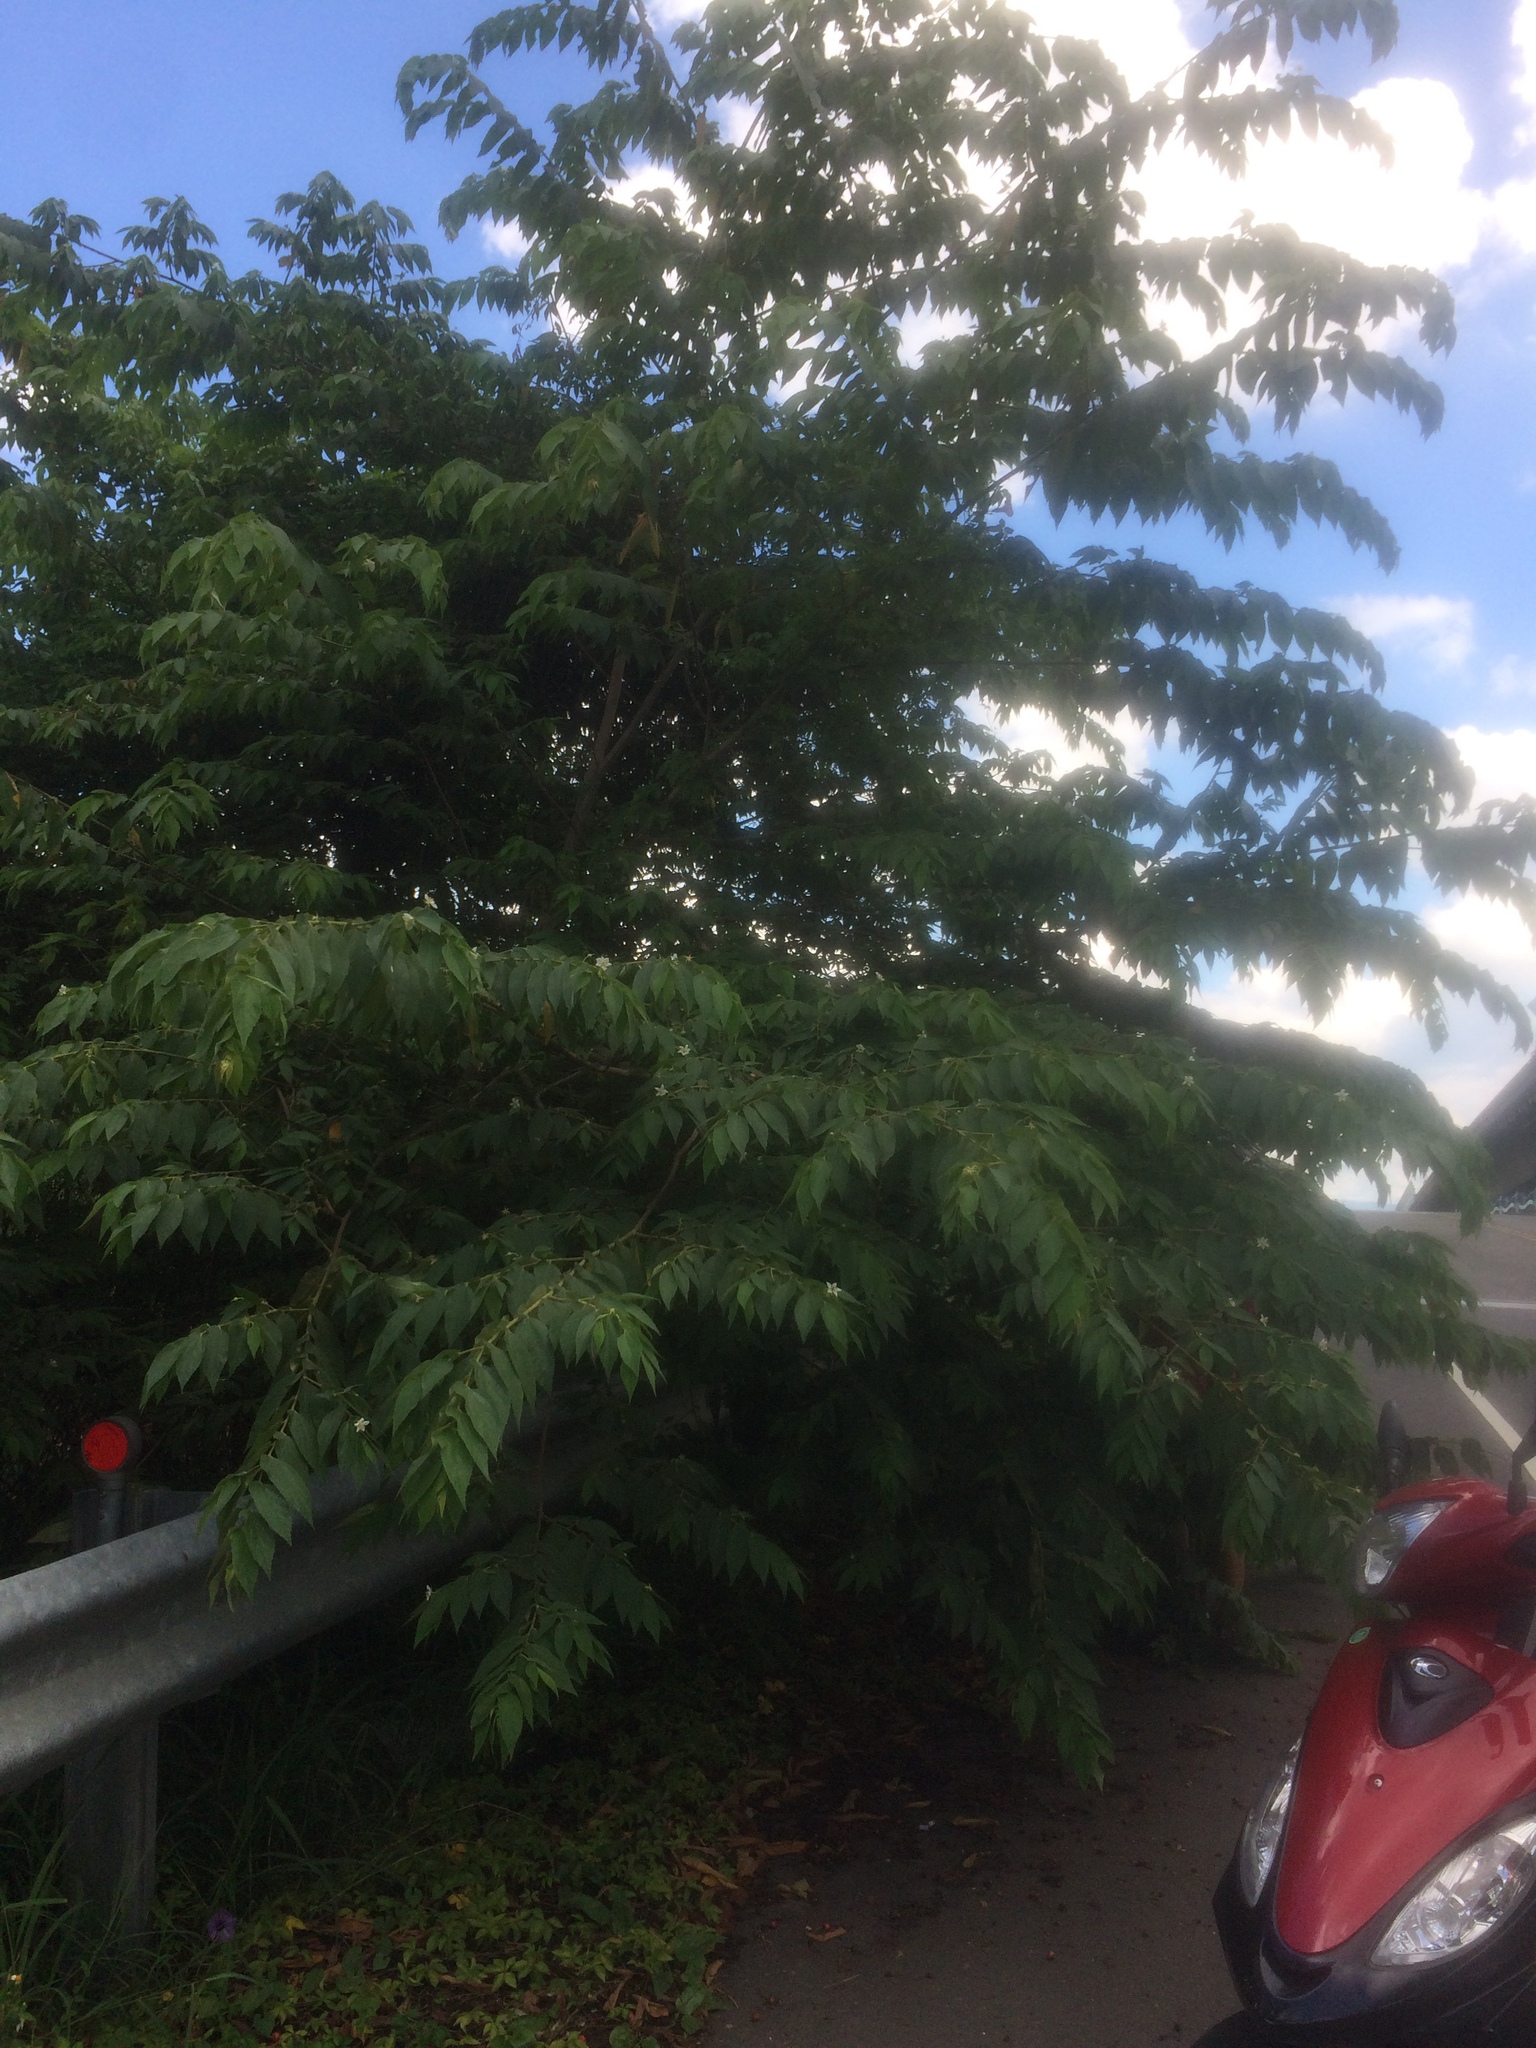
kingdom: Plantae
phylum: Tracheophyta
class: Magnoliopsida
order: Malvales
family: Muntingiaceae
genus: Muntingia
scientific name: Muntingia calabura
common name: Strawberrytree
